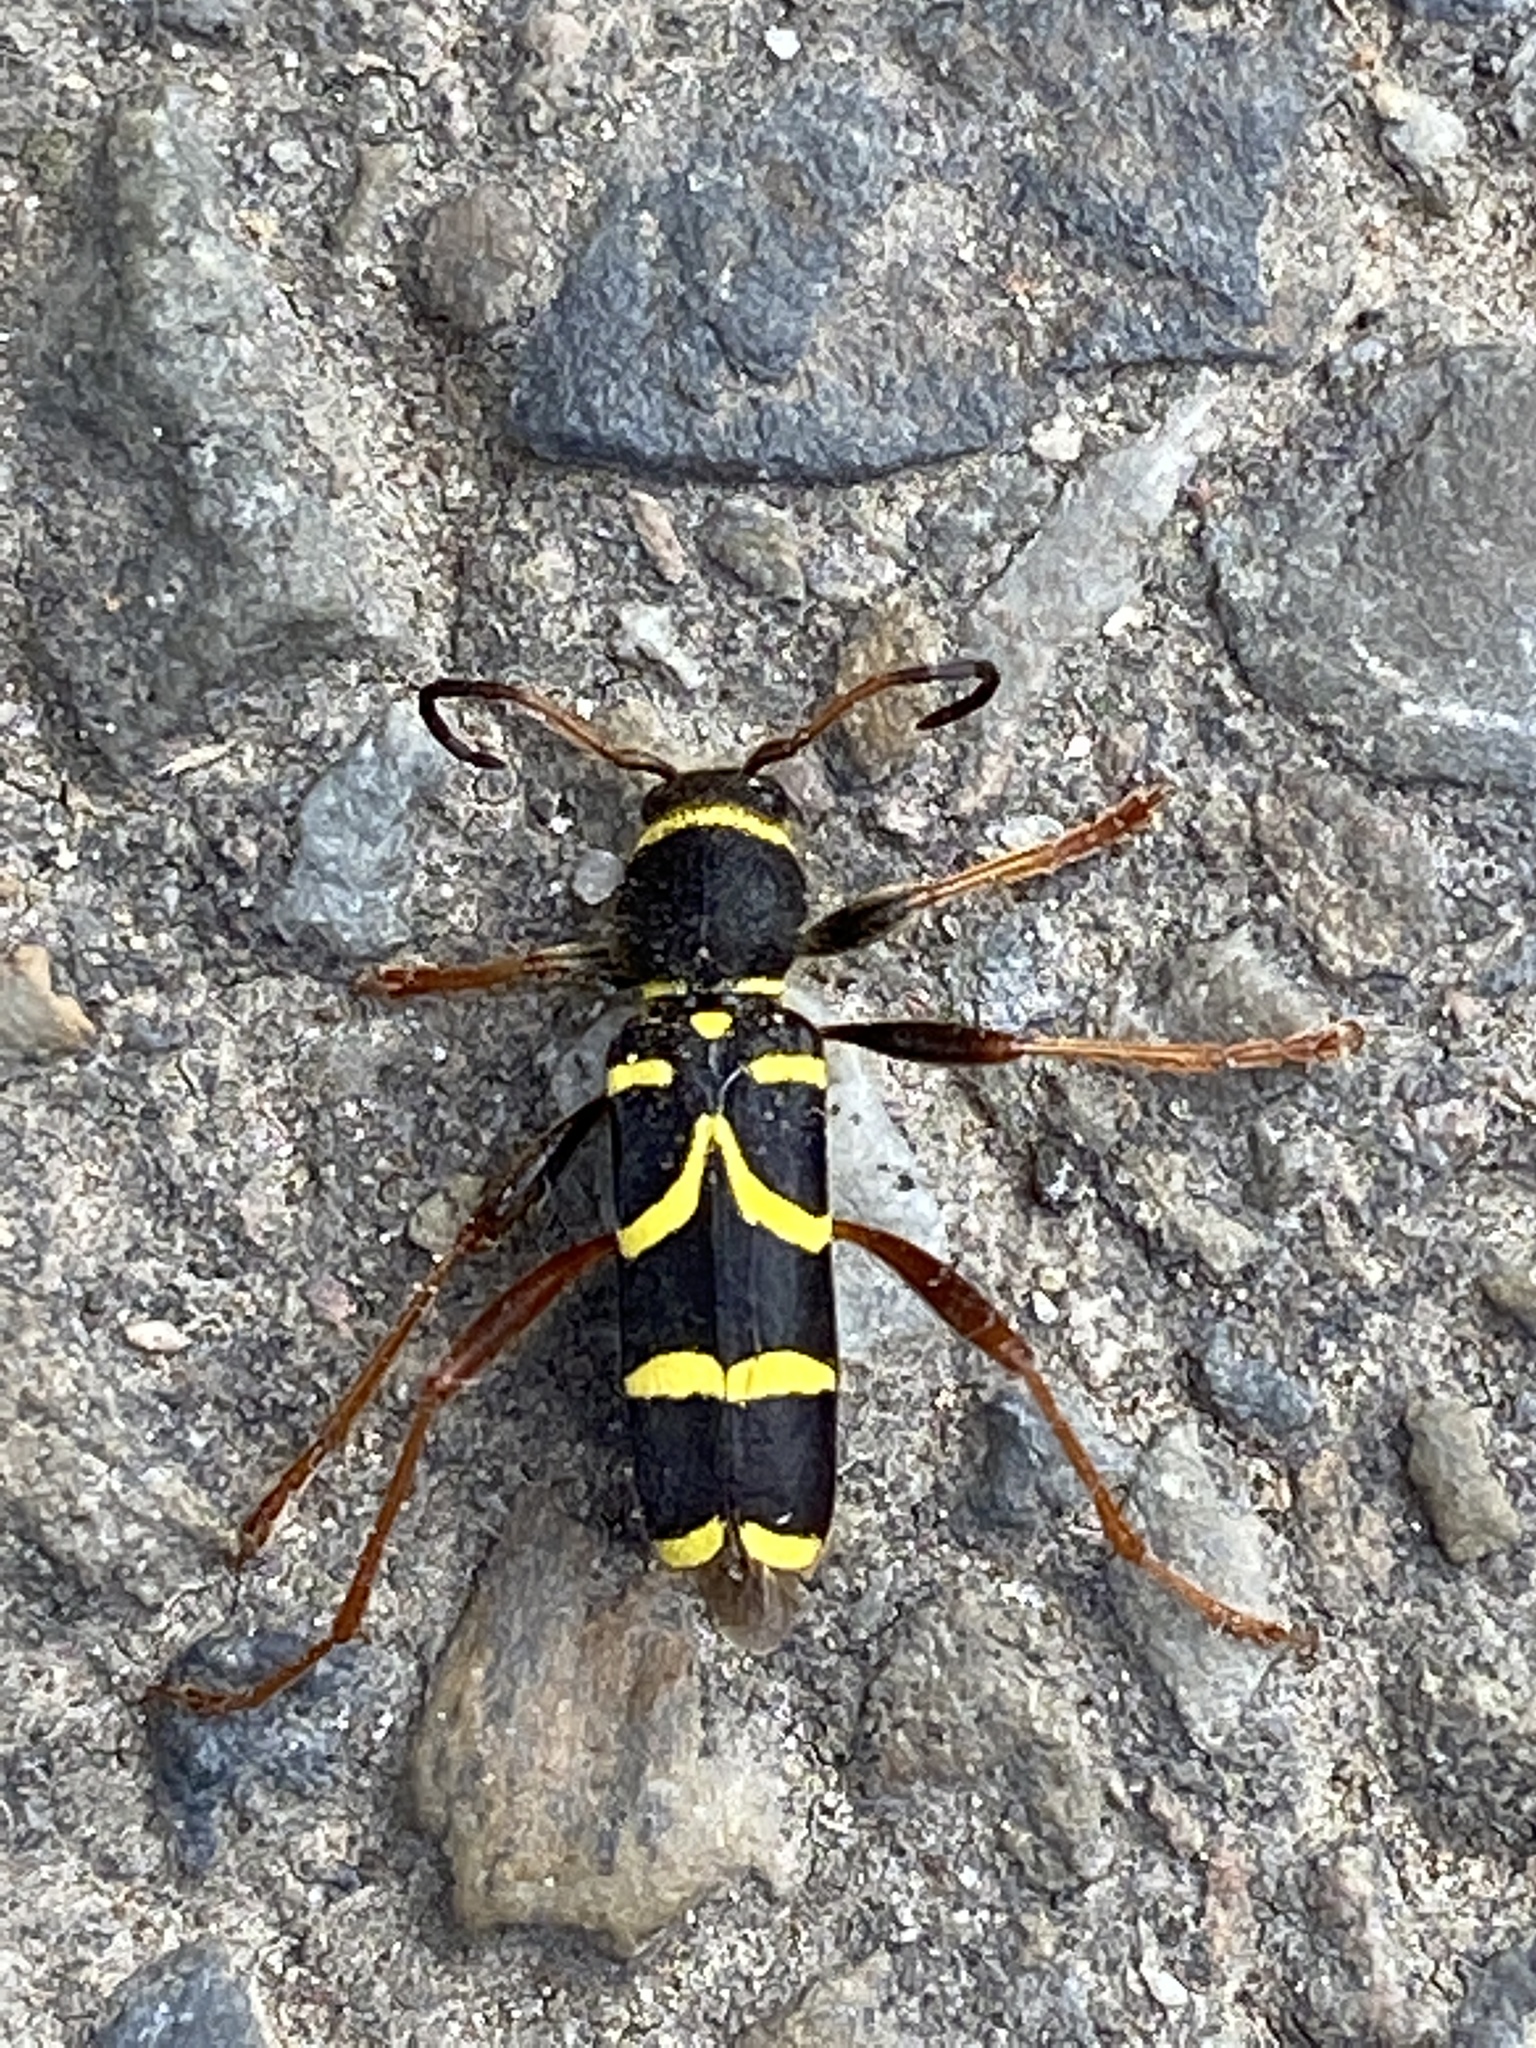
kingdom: Animalia
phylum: Arthropoda
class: Insecta
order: Coleoptera
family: Cerambycidae
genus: Clytus
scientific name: Clytus arietis
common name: Wasp beetle
